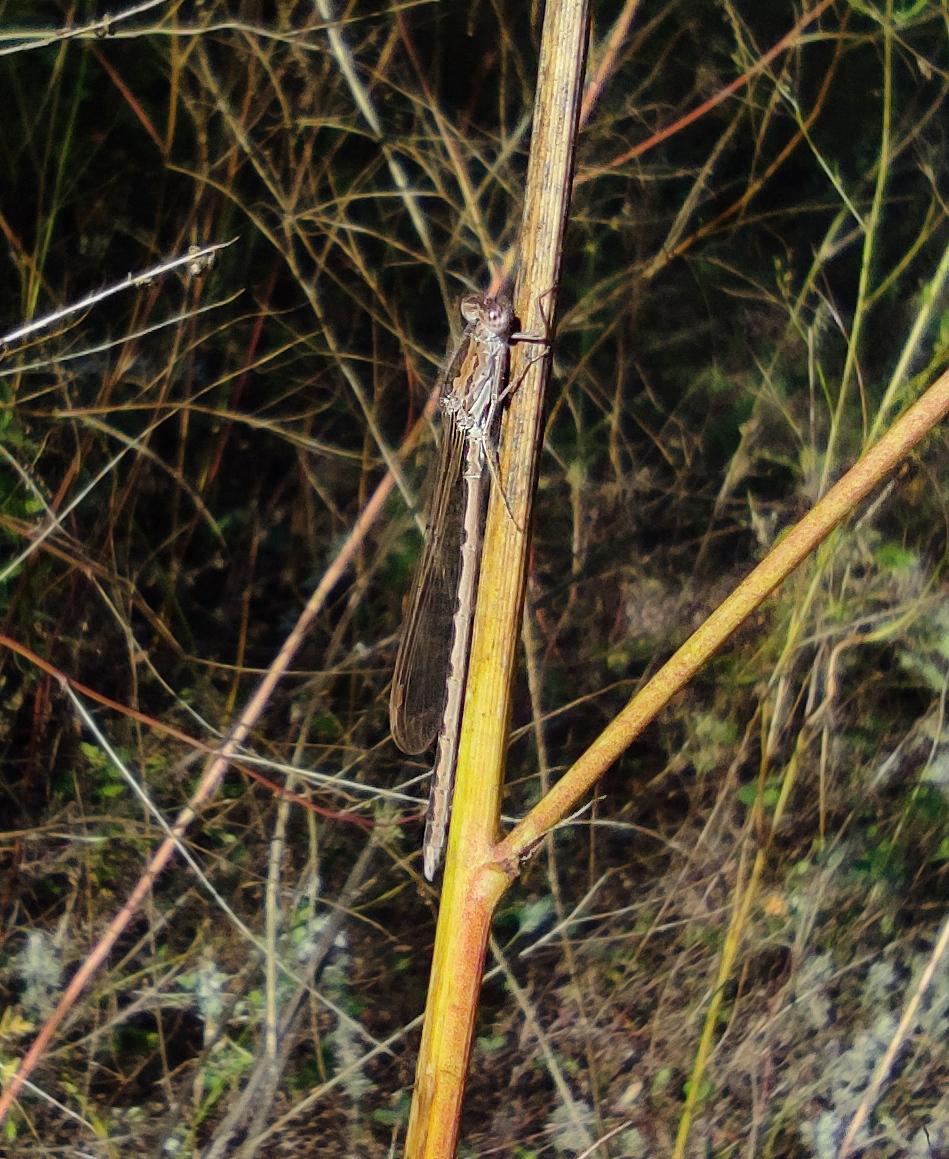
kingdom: Animalia
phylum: Arthropoda
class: Insecta
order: Odonata
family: Lestidae
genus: Sympecma
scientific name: Sympecma paedisca
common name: Siberian winter damsel
